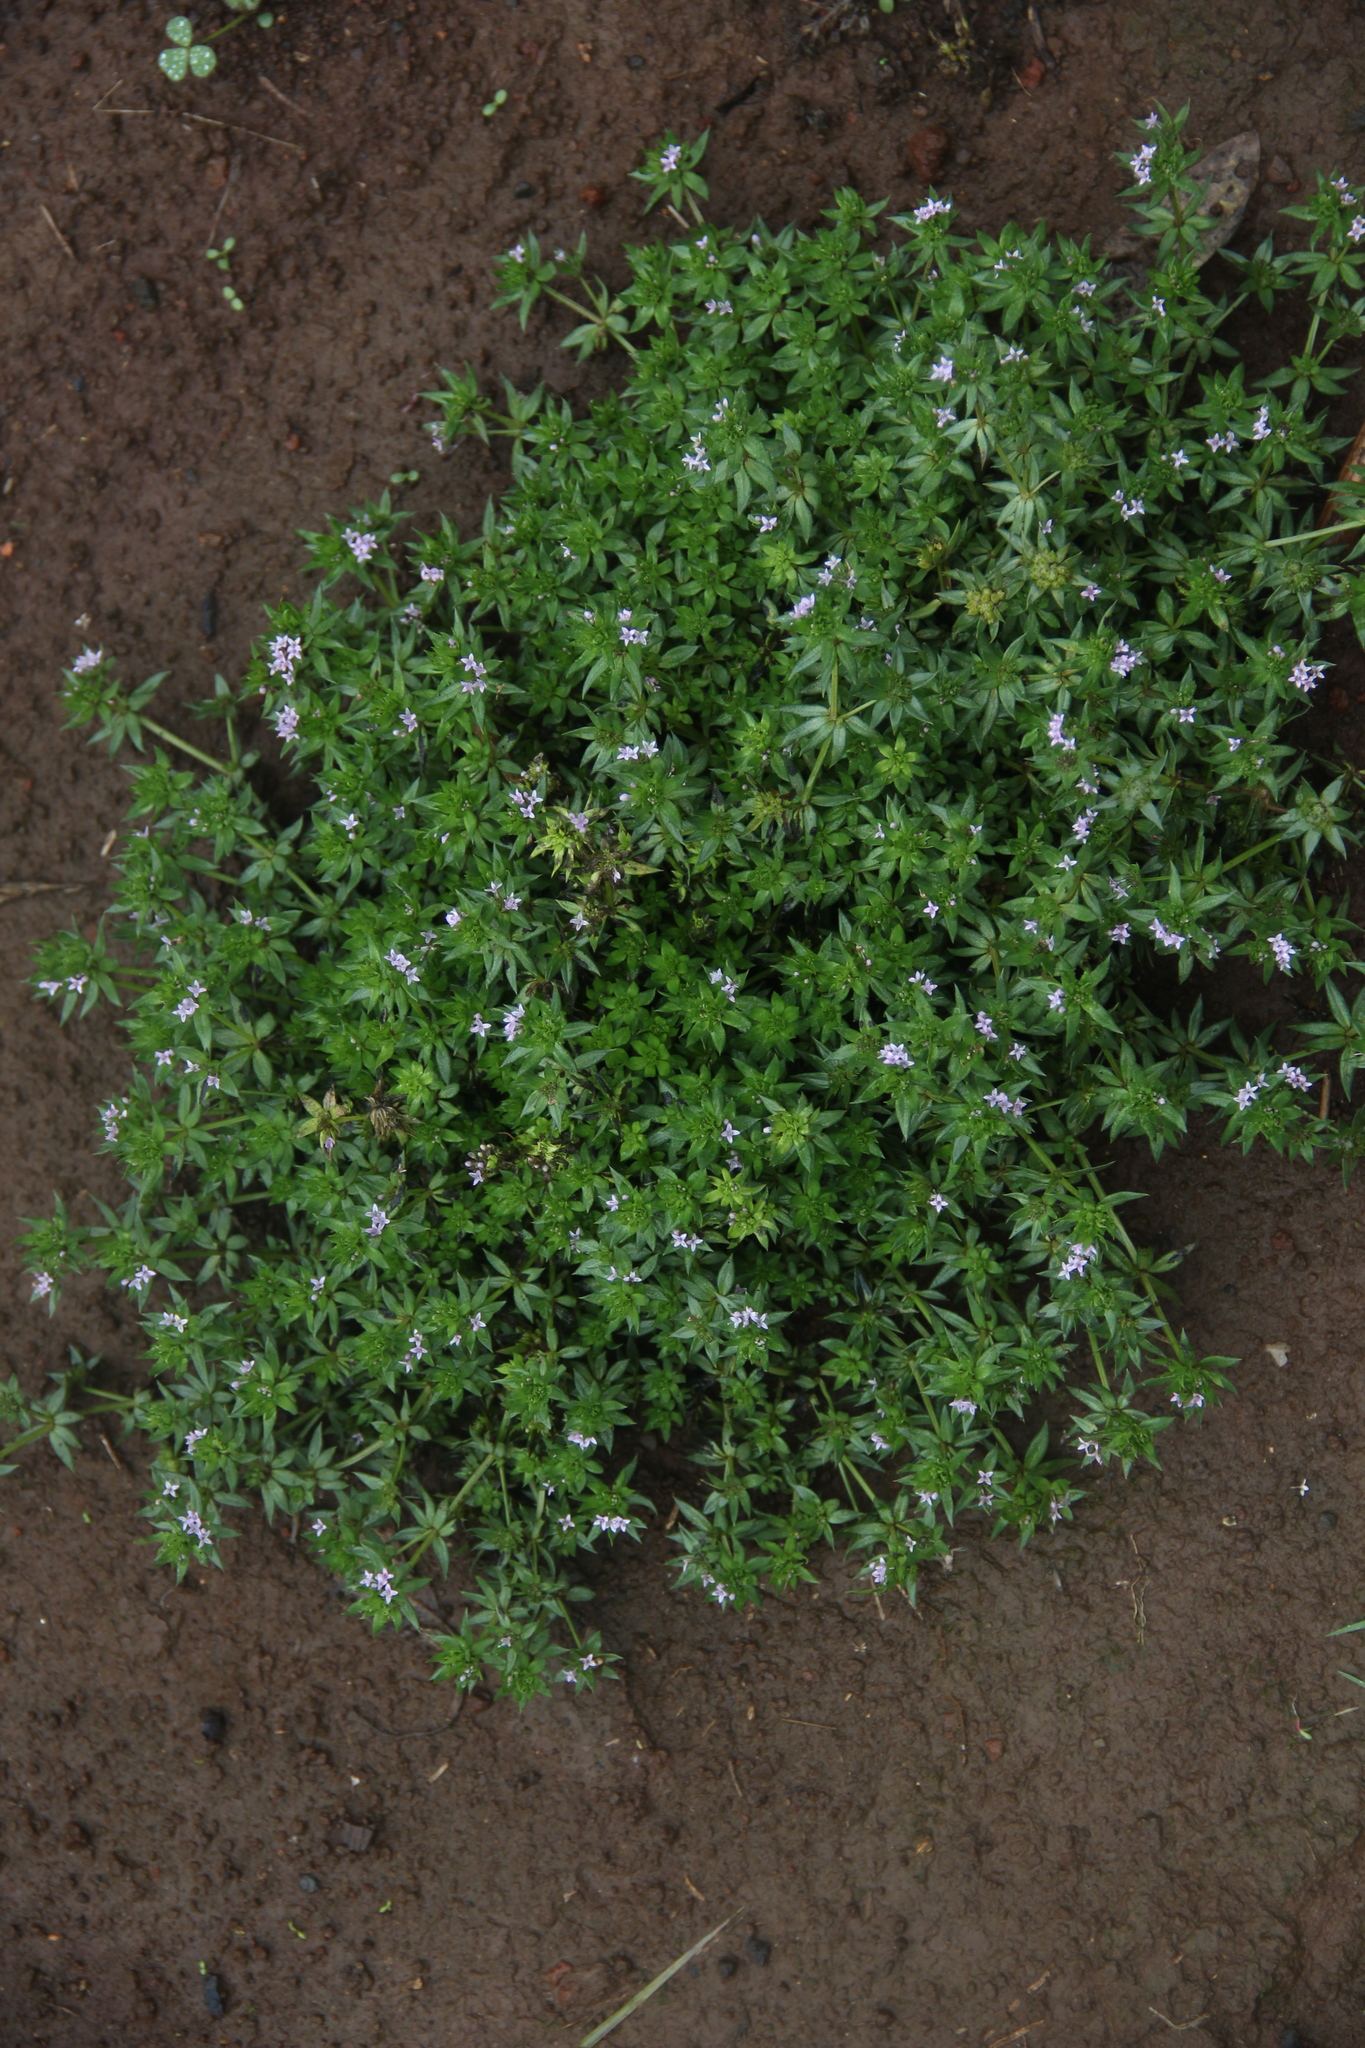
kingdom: Plantae
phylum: Tracheophyta
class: Magnoliopsida
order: Gentianales
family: Rubiaceae
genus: Sherardia
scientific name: Sherardia arvensis
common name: Field madder
